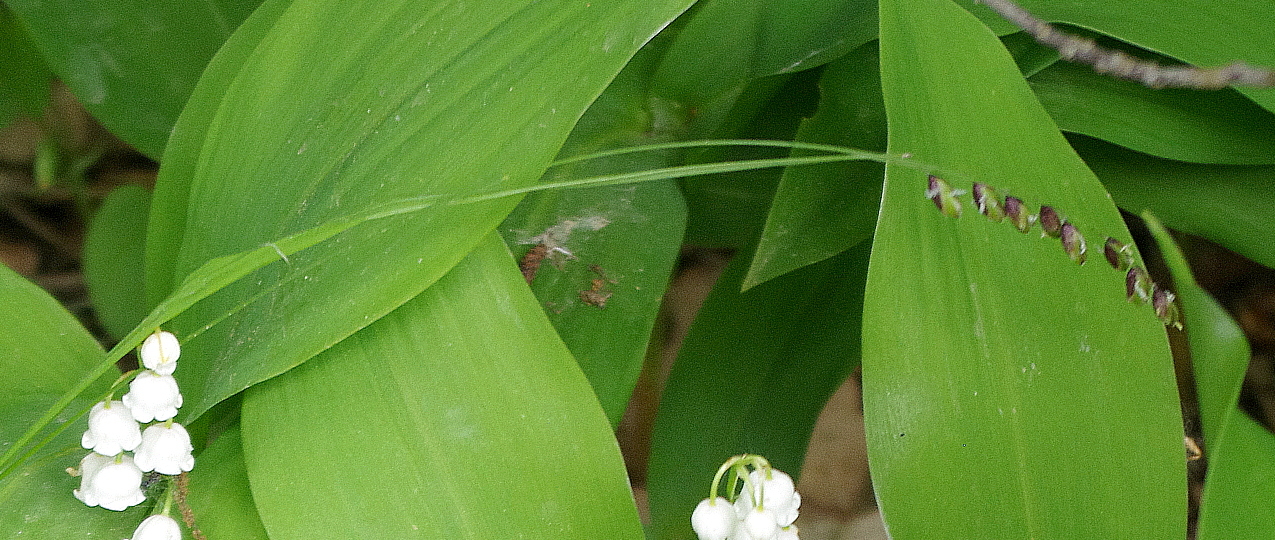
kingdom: Plantae
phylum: Tracheophyta
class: Liliopsida
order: Poales
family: Poaceae
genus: Melica
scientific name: Melica nutans
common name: Mountain melick
